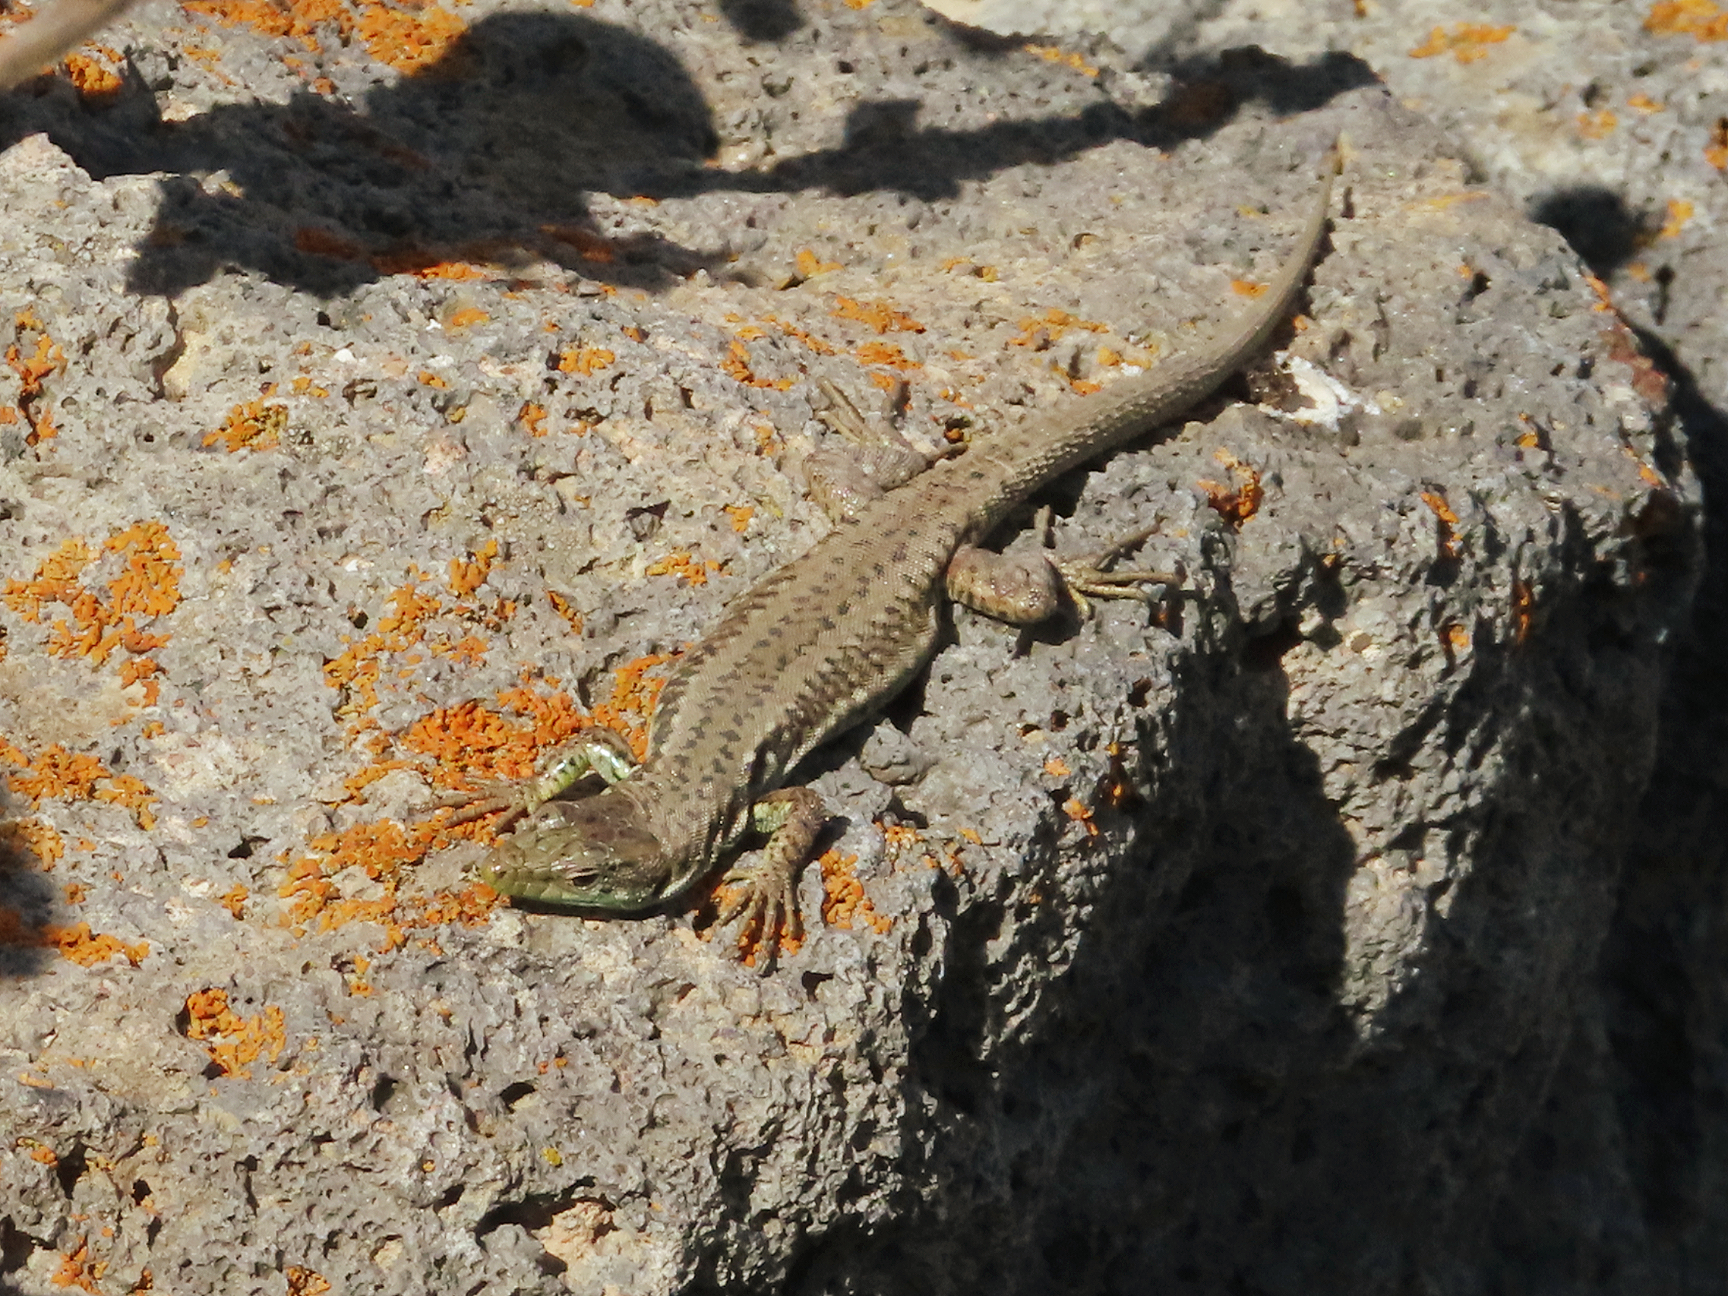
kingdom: Animalia
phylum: Chordata
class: Squamata
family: Lacertidae
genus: Darevskia
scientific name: Darevskia raddei
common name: Radde's lizard
